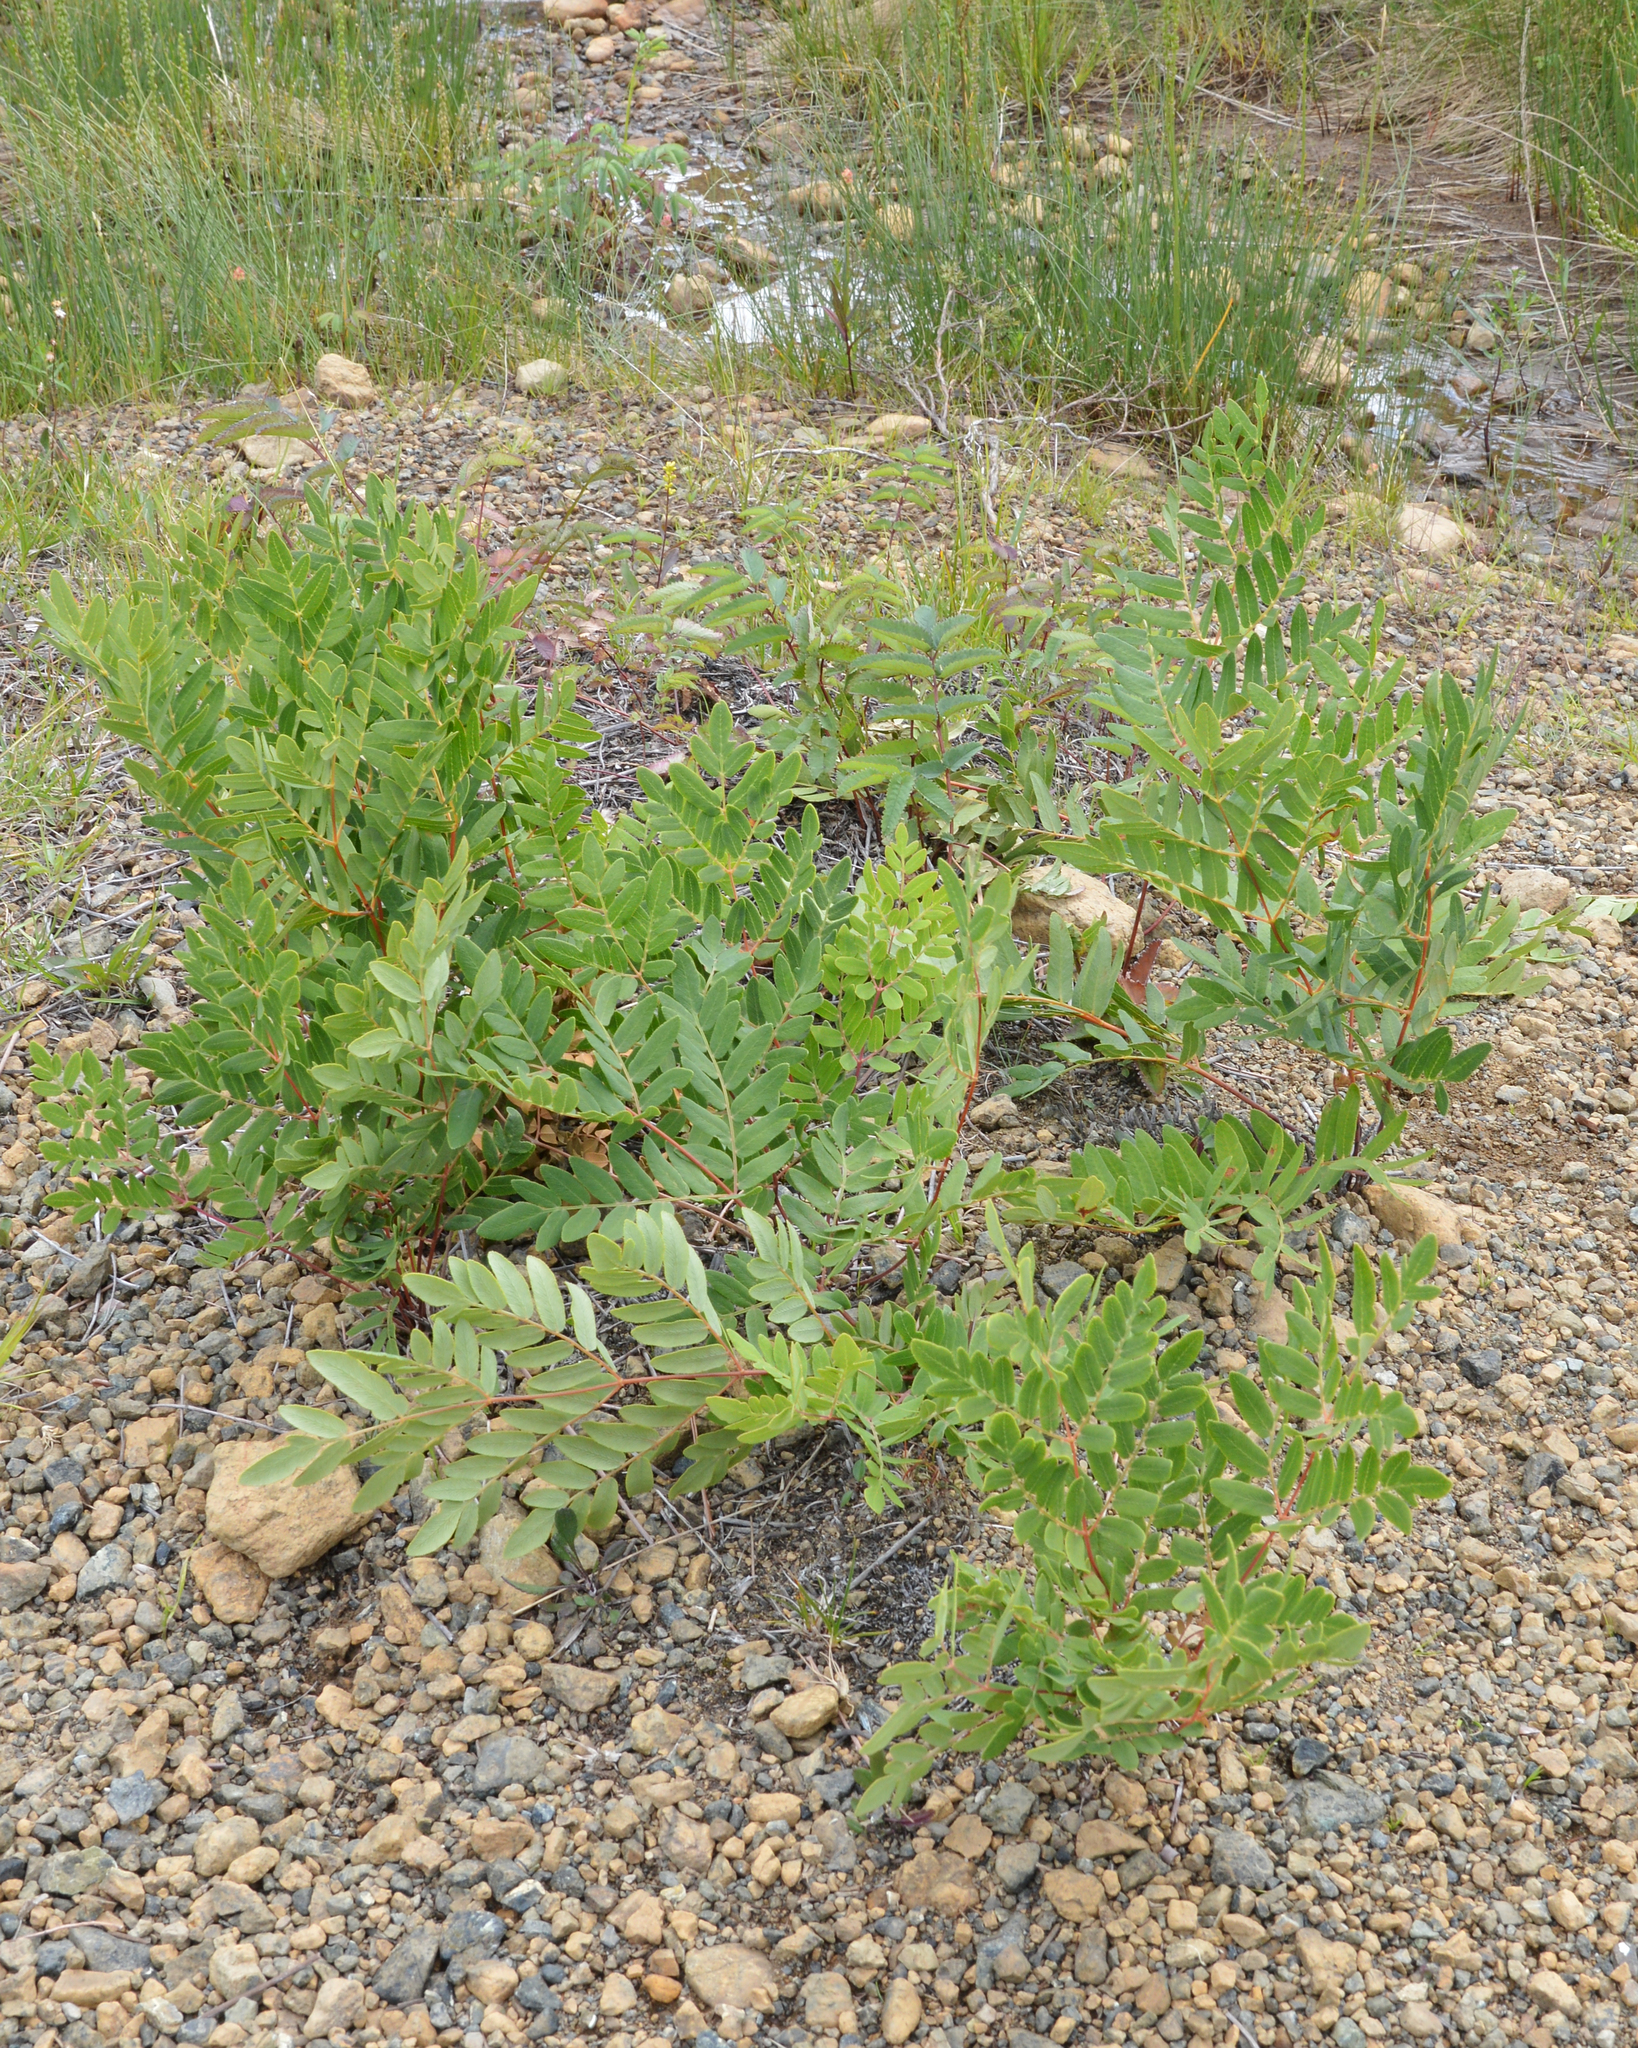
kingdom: Plantae
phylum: Tracheophyta
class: Polypodiopsida
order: Osmundales
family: Osmundaceae
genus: Osmunda
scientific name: Osmunda spectabilis
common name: American royal fern
